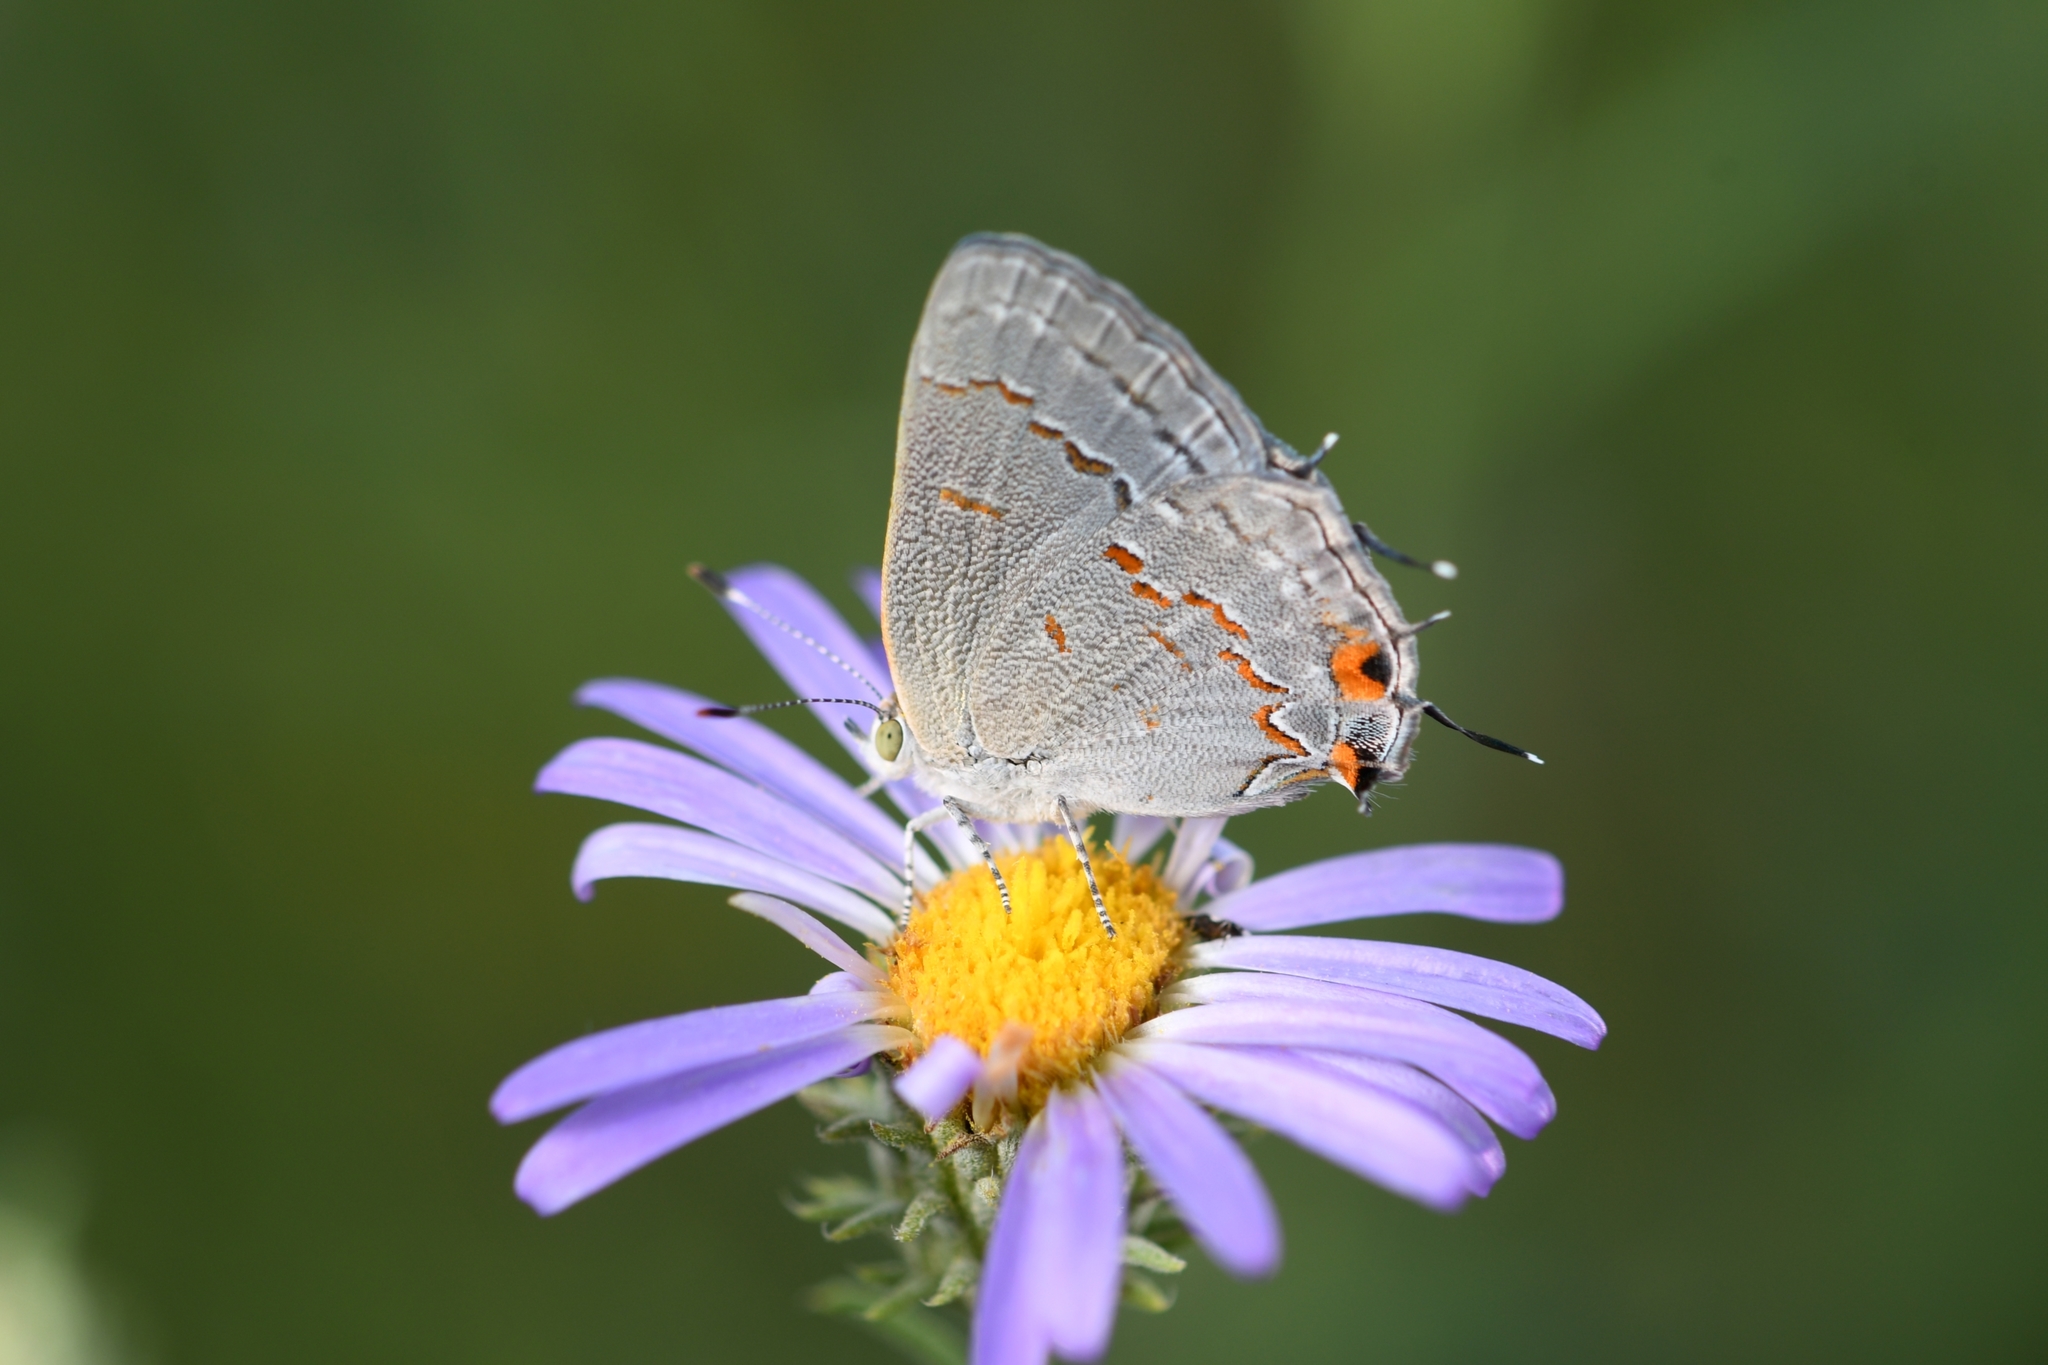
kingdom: Animalia
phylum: Arthropoda
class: Insecta
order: Lepidoptera
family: Lycaenidae
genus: Ministrymon
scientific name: Ministrymon leda
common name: Leda ministreak
